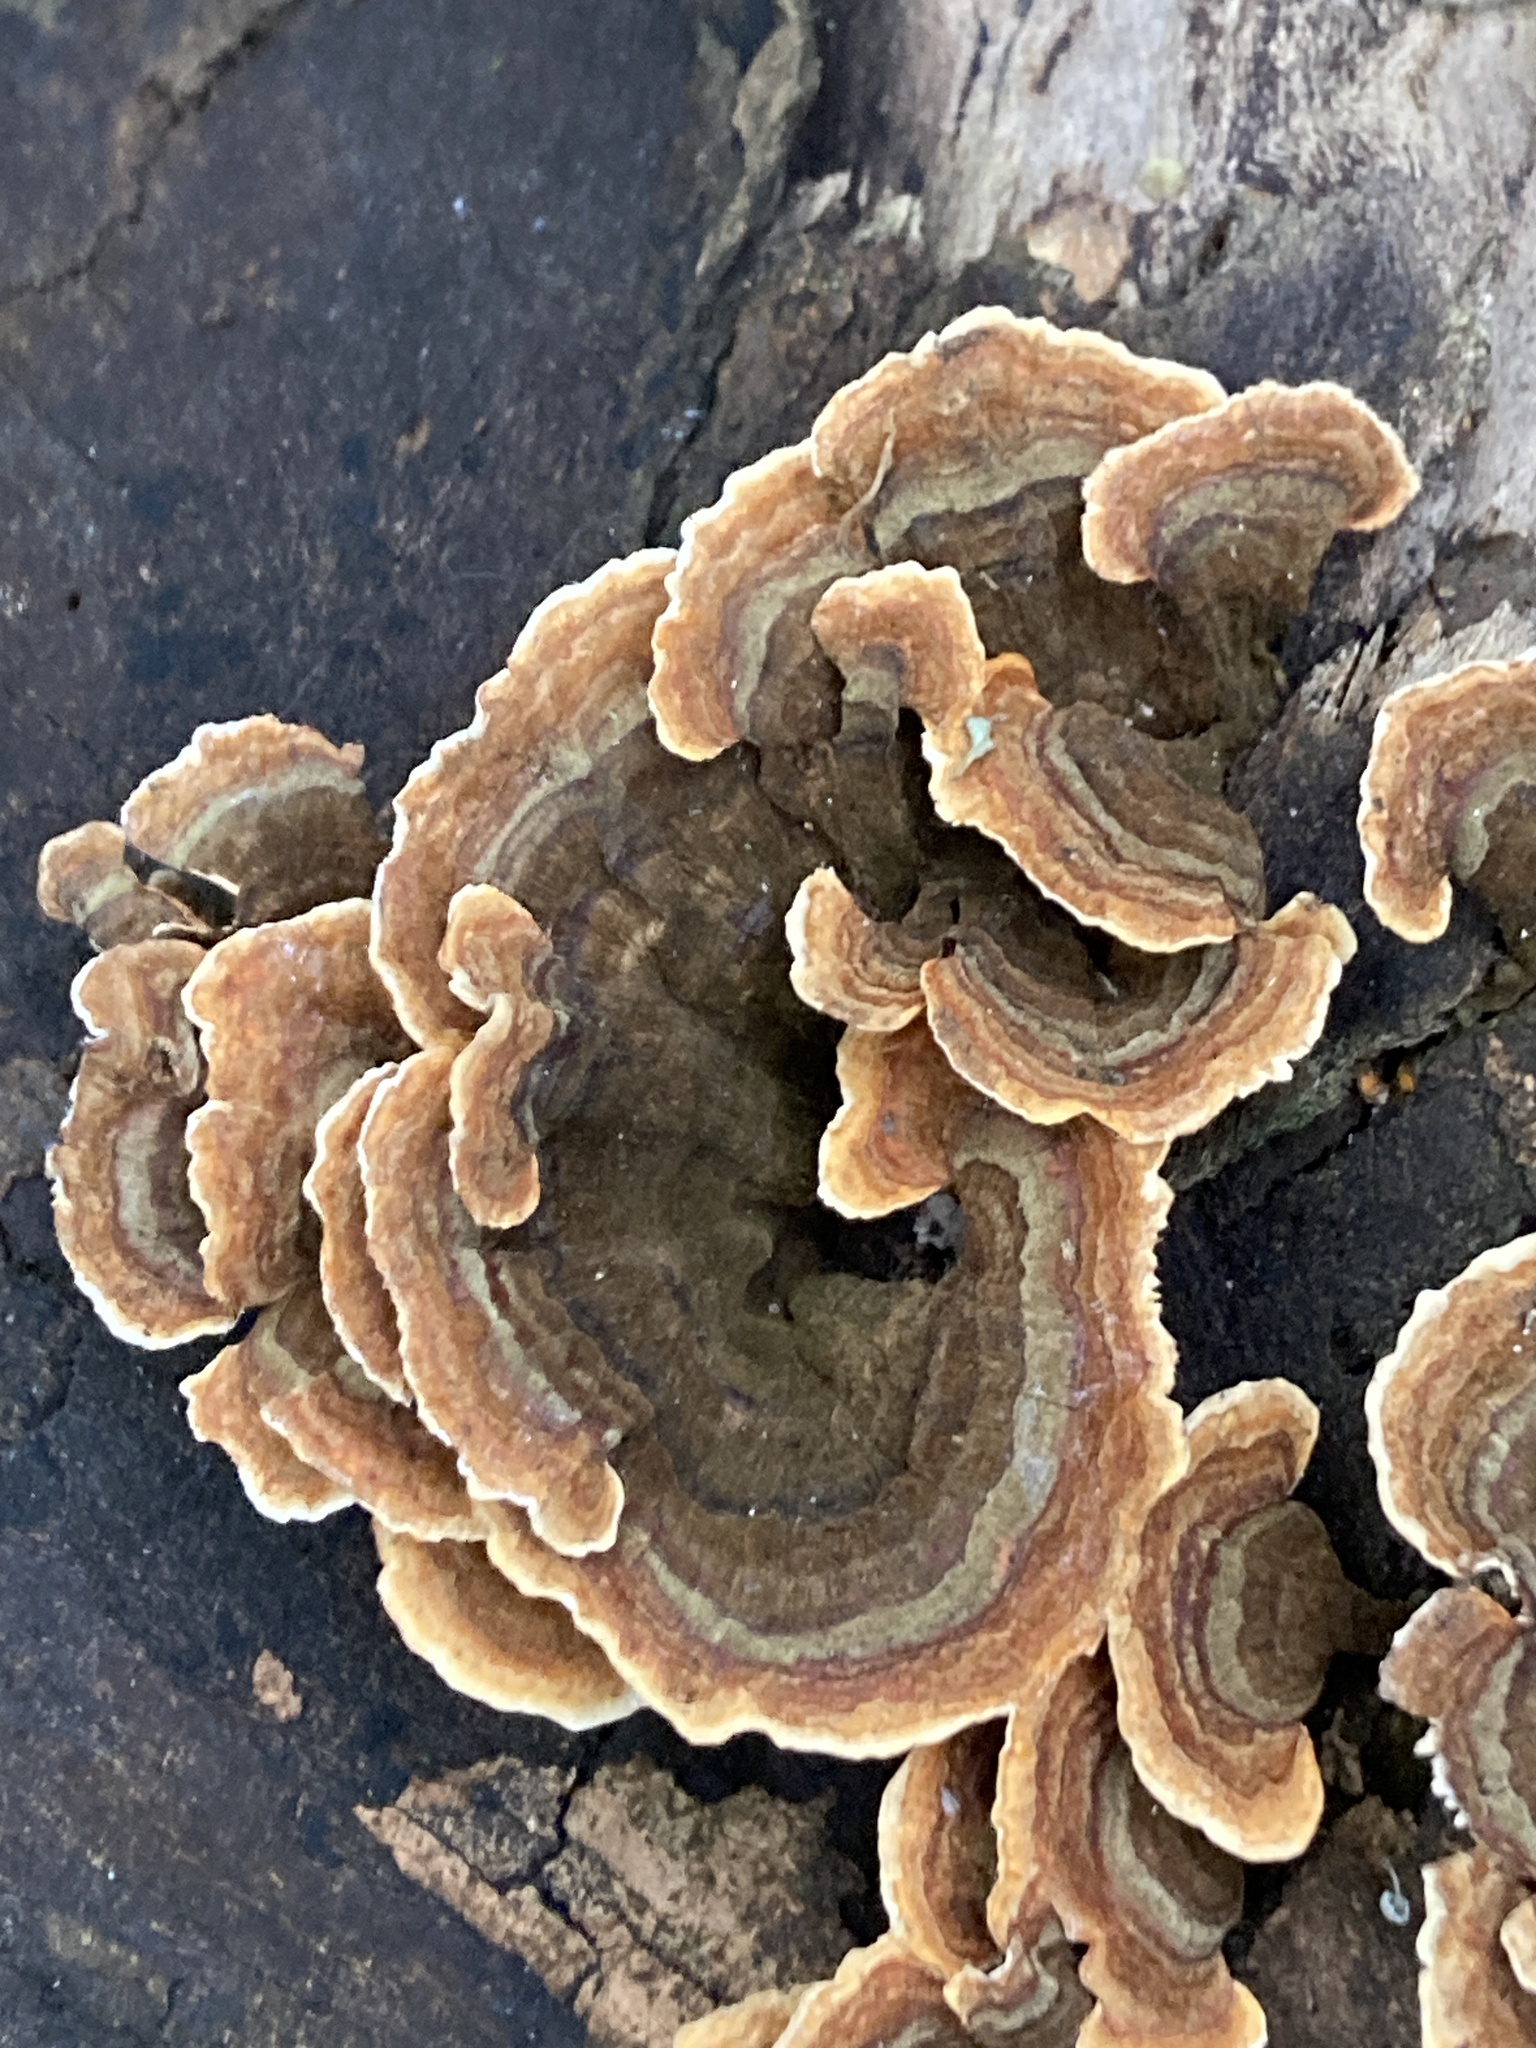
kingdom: Fungi
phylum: Basidiomycota
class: Agaricomycetes
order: Russulales
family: Stereaceae
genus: Stereum
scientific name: Stereum hirsutum
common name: Hairy curtain crust
